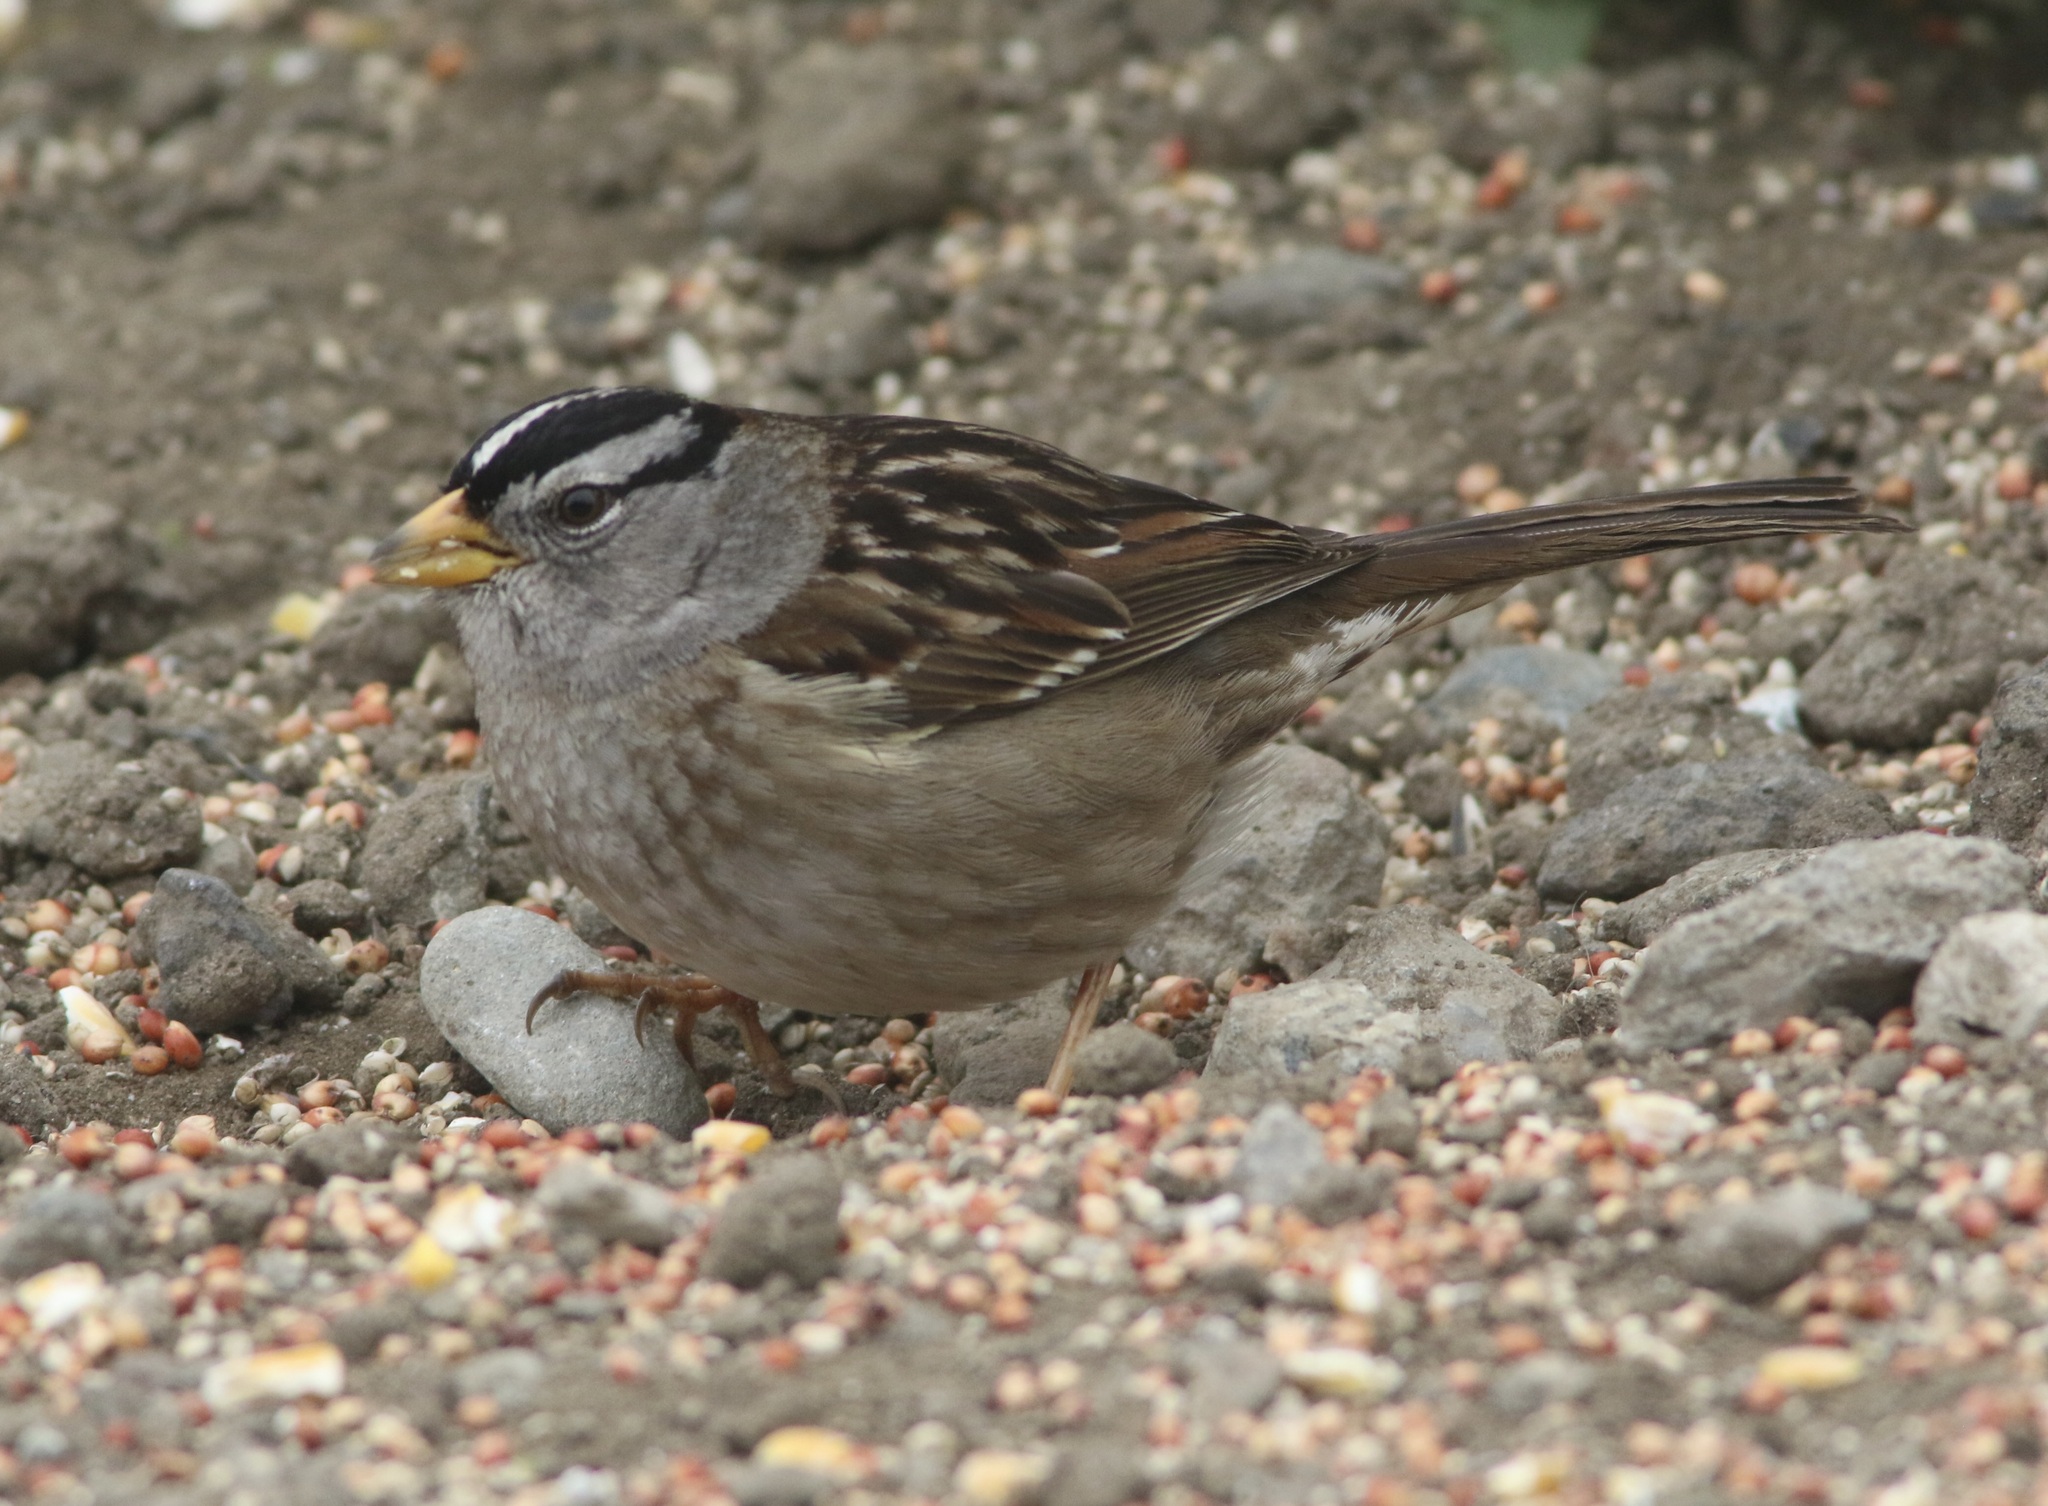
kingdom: Animalia
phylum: Chordata
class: Aves
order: Passeriformes
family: Passerellidae
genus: Zonotrichia
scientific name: Zonotrichia leucophrys
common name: White-crowned sparrow
